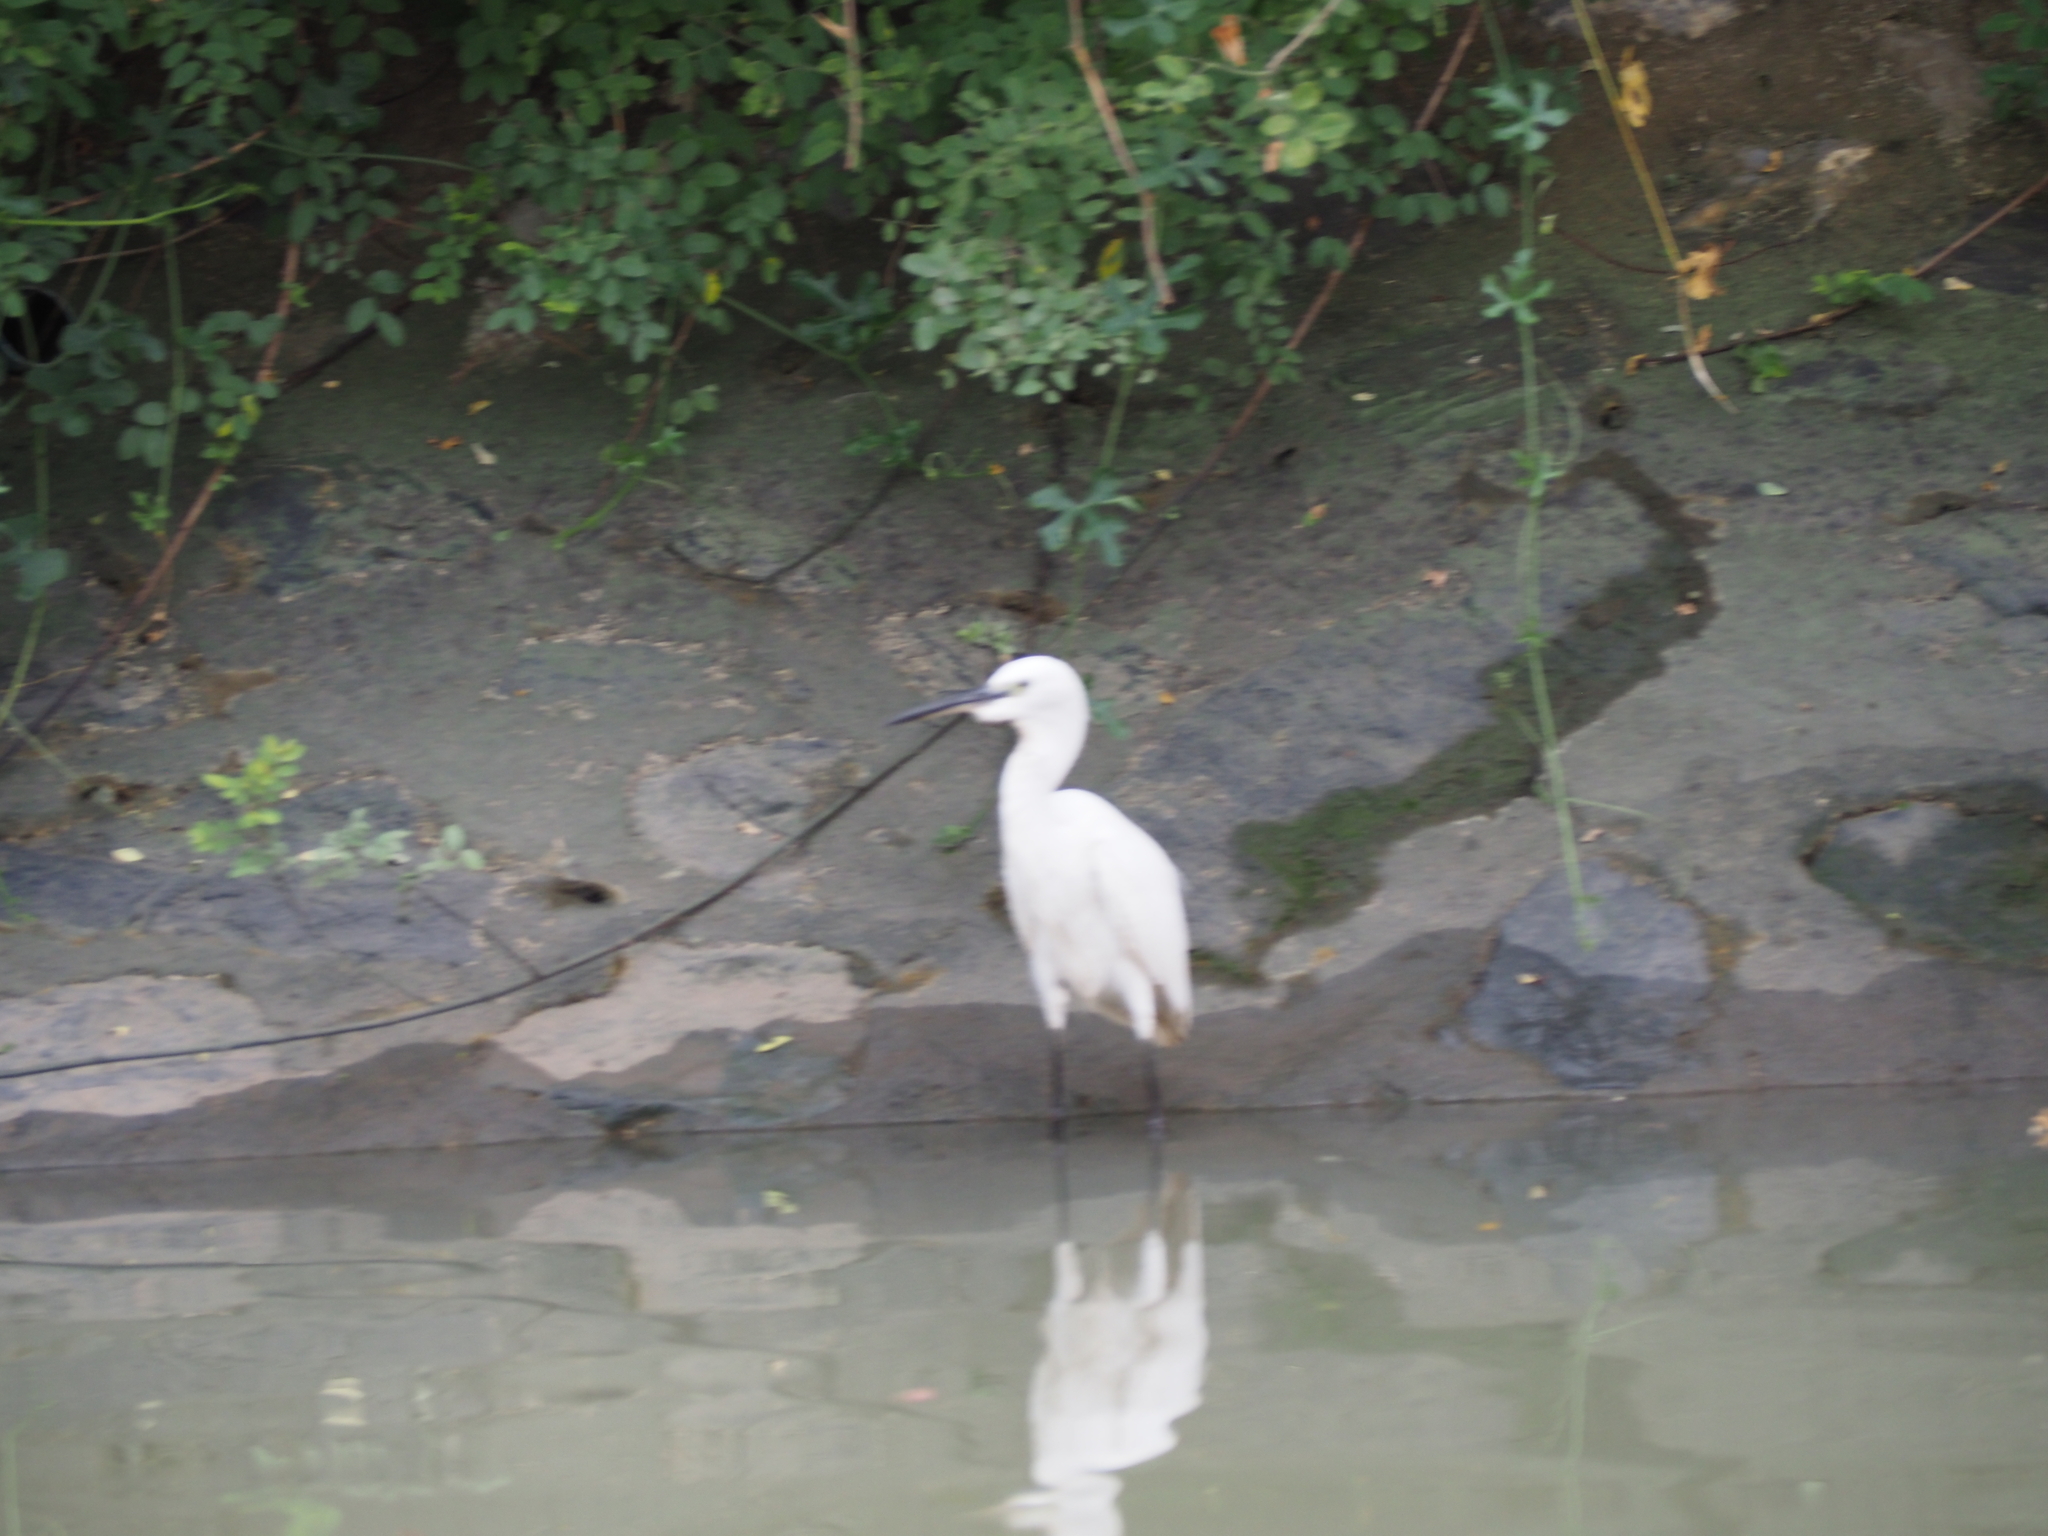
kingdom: Animalia
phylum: Chordata
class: Aves
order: Pelecaniformes
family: Ardeidae
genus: Egretta
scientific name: Egretta garzetta
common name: Little egret
